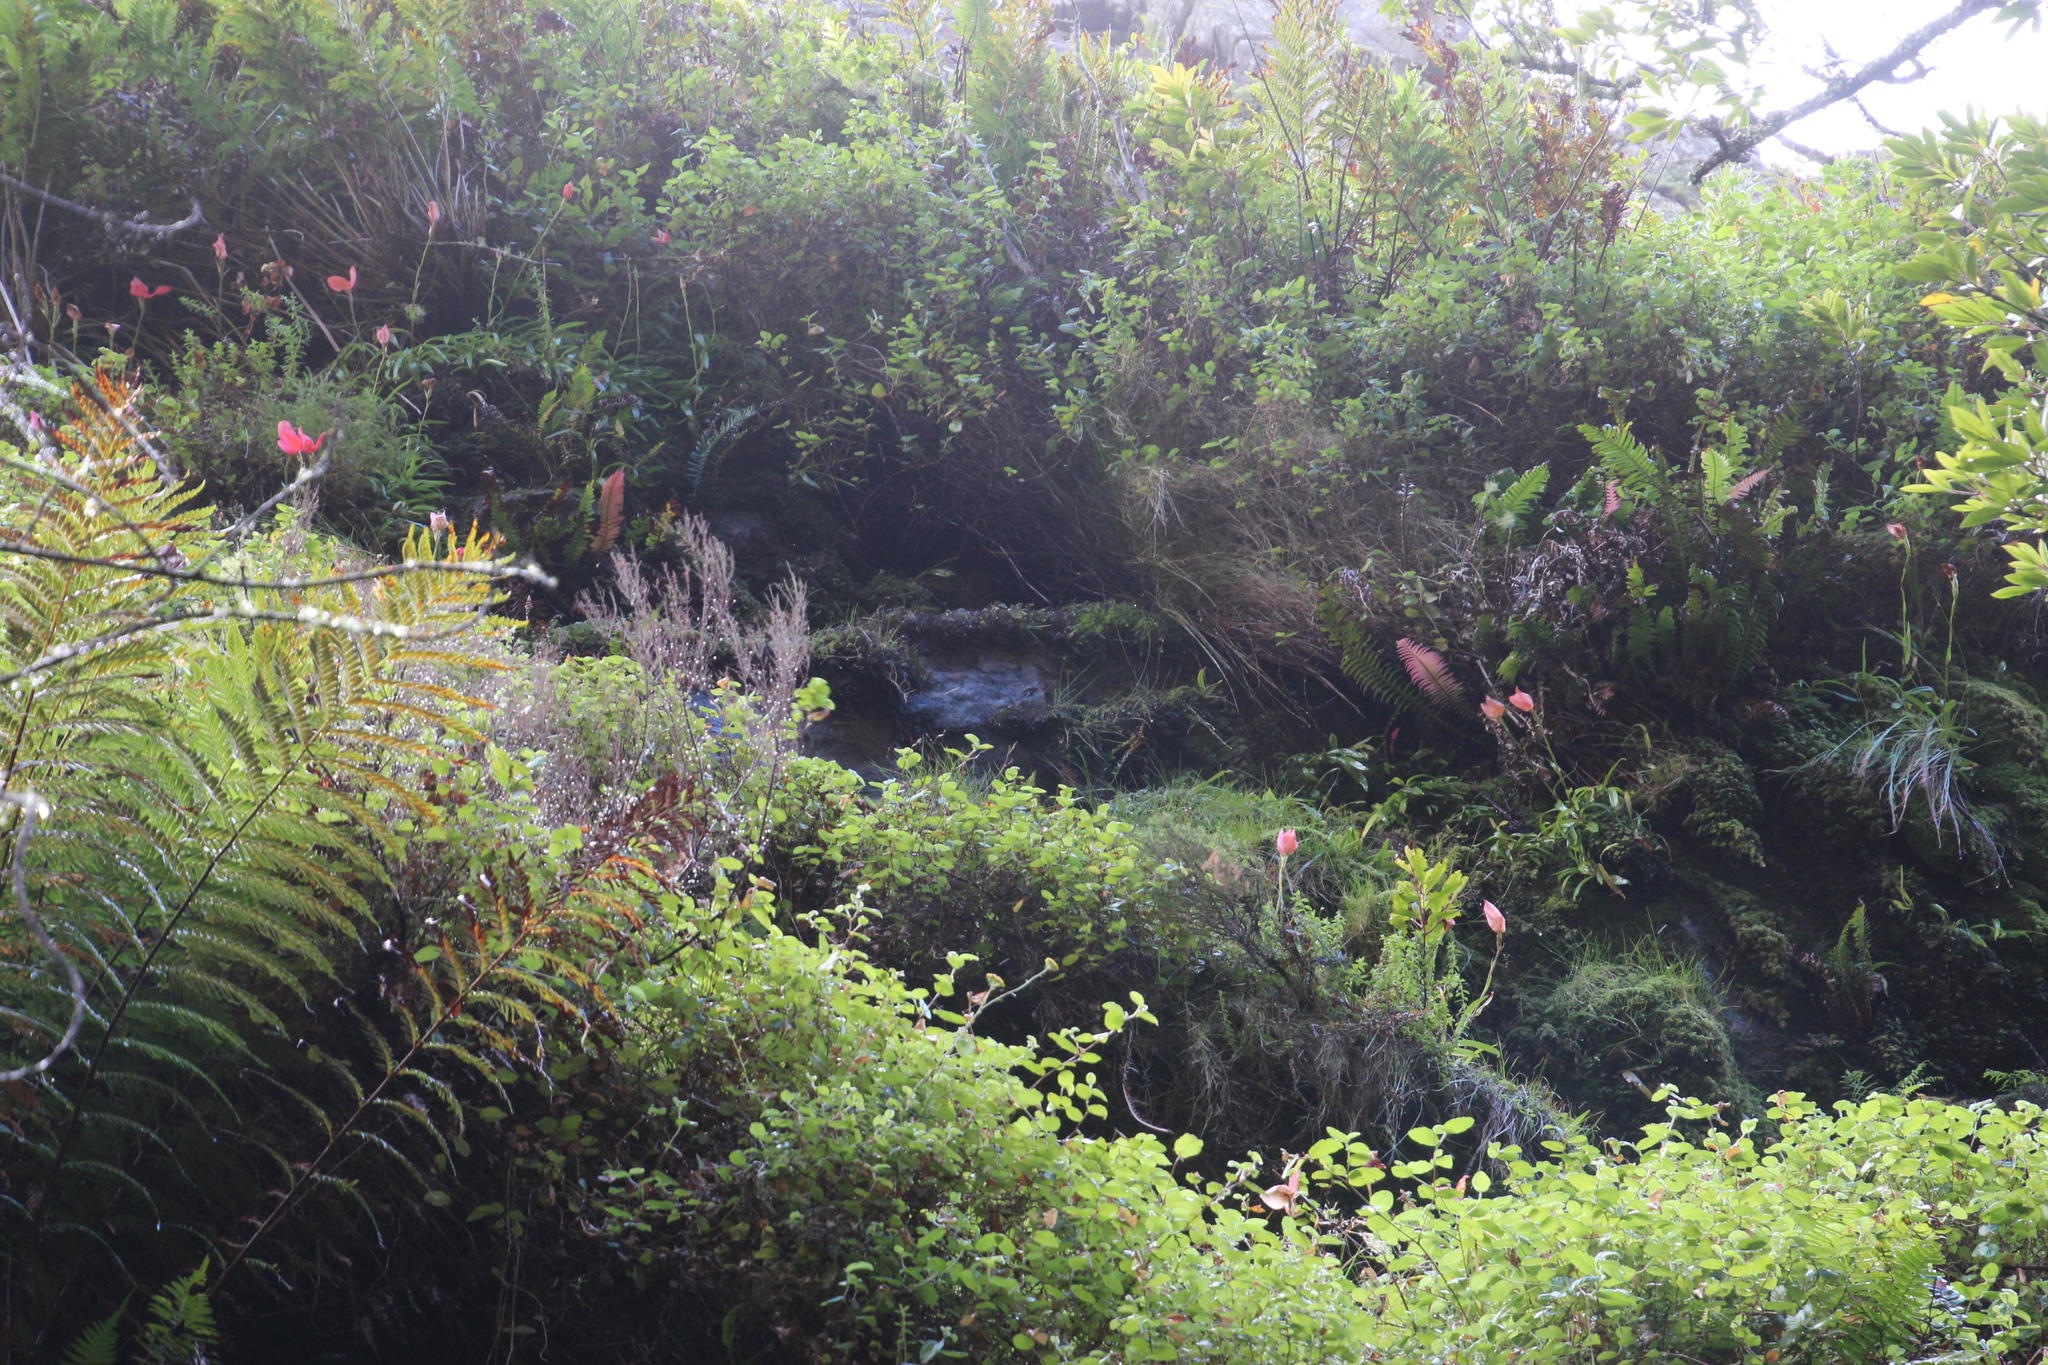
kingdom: Plantae
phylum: Tracheophyta
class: Liliopsida
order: Asparagales
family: Orchidaceae
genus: Disa
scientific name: Disa uniflora
